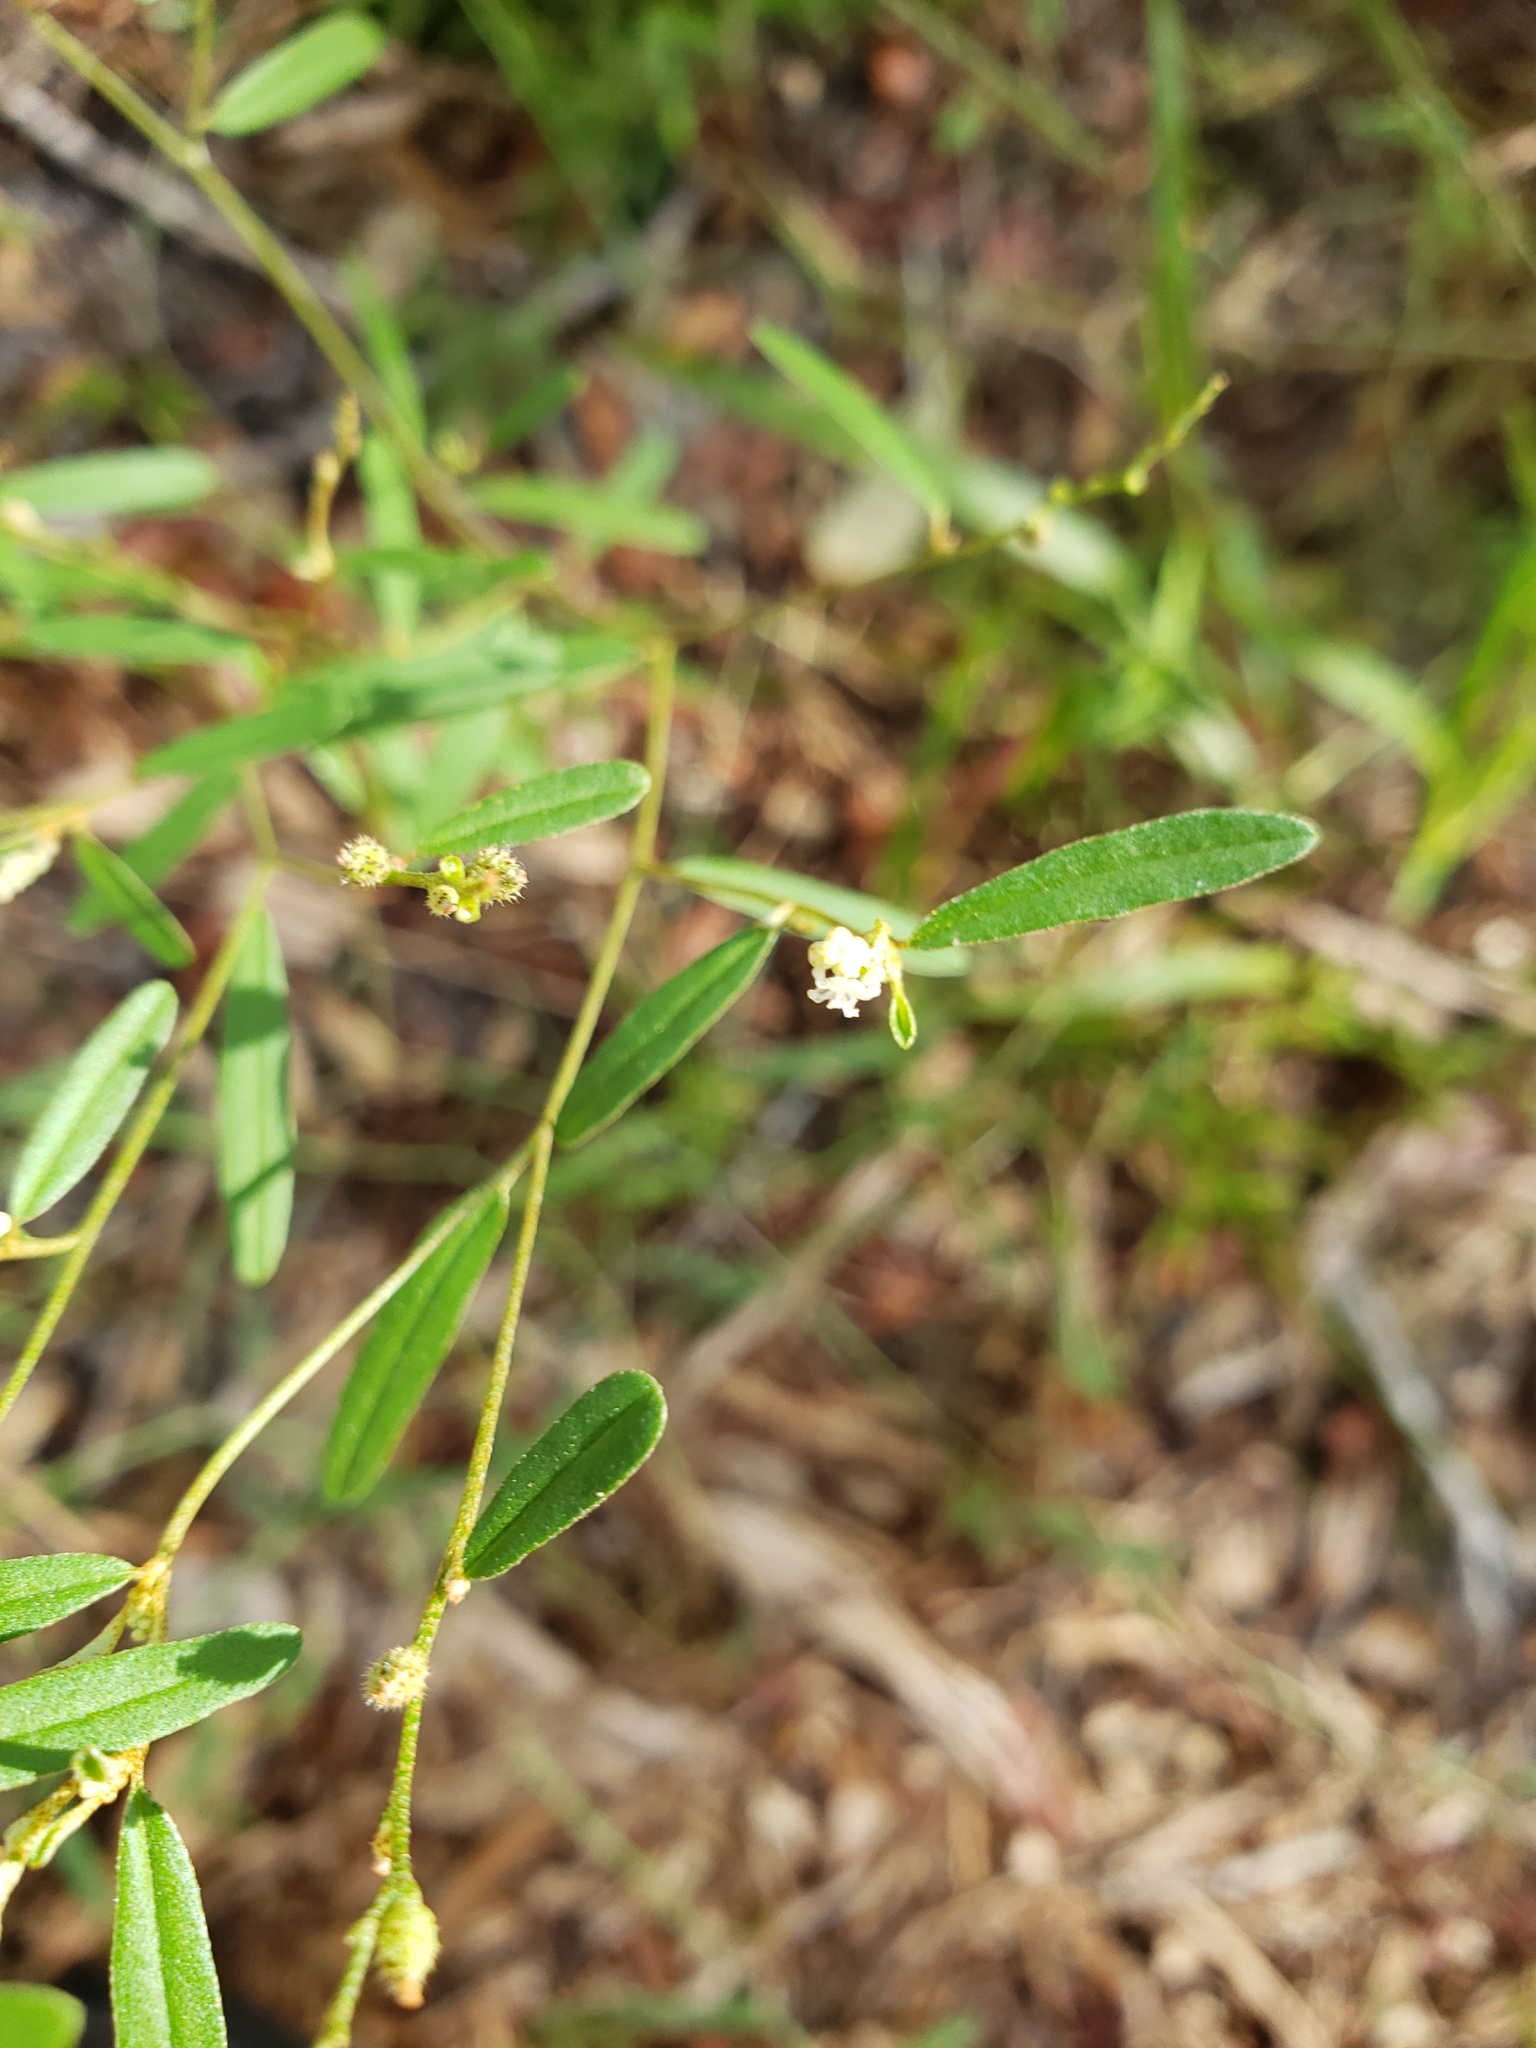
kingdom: Plantae
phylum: Tracheophyta
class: Magnoliopsida
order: Malpighiales
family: Euphorbiaceae
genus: Croton
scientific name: Croton michauxii
